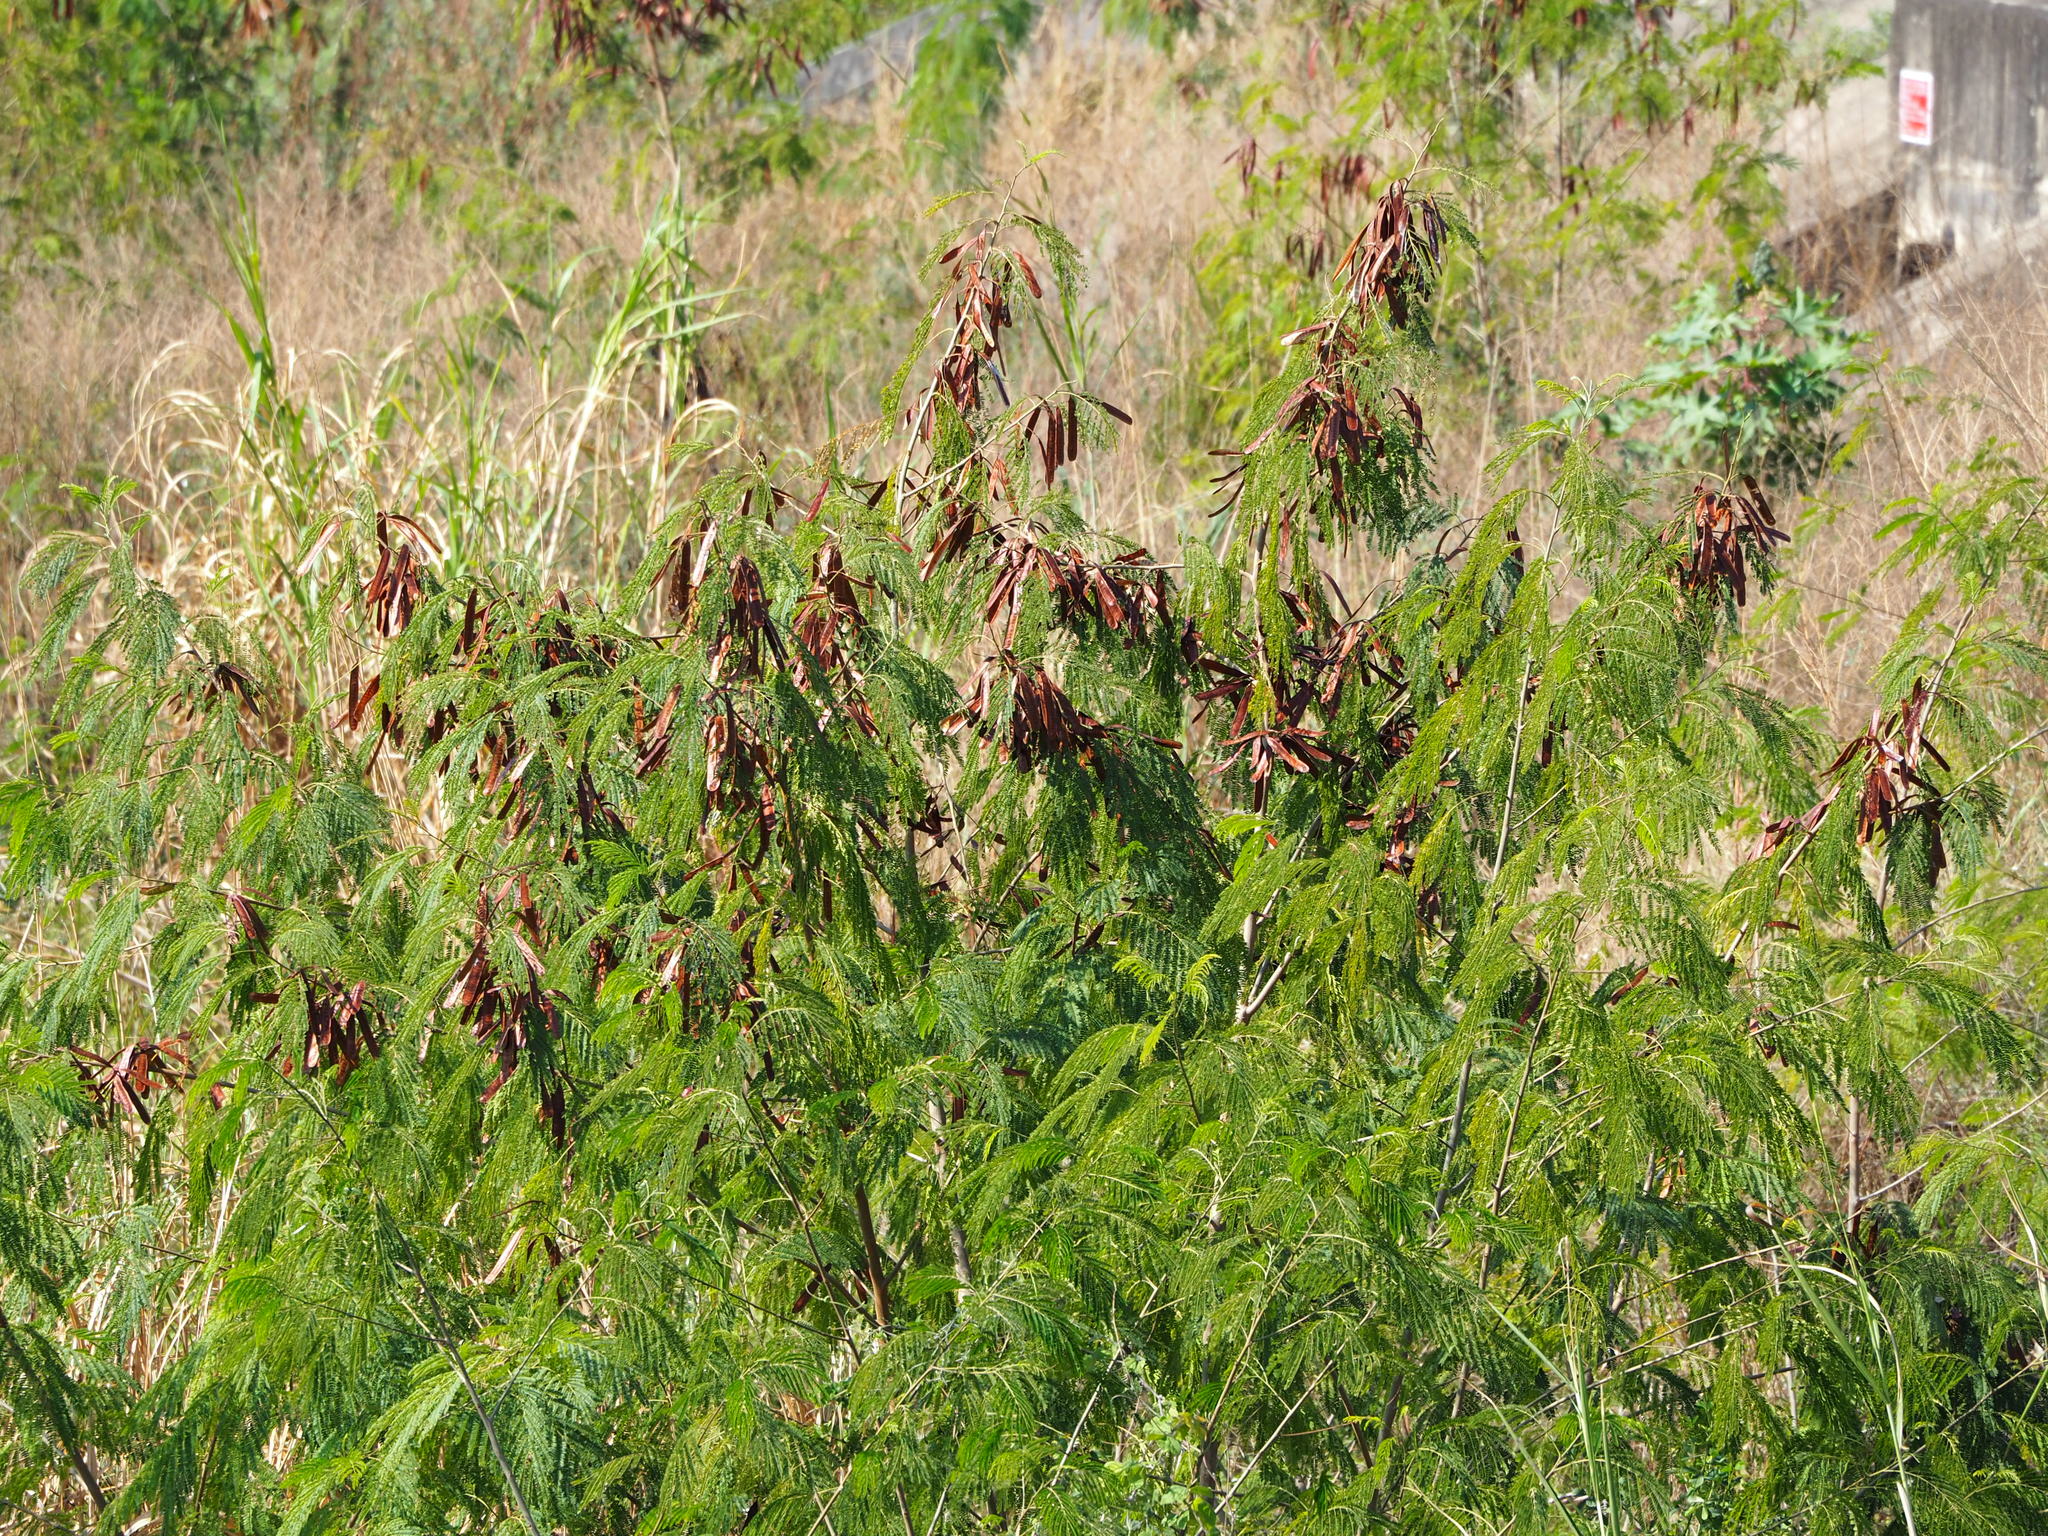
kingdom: Plantae
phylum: Tracheophyta
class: Magnoliopsida
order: Fabales
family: Fabaceae
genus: Leucaena
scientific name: Leucaena leucocephala
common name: White leadtree
